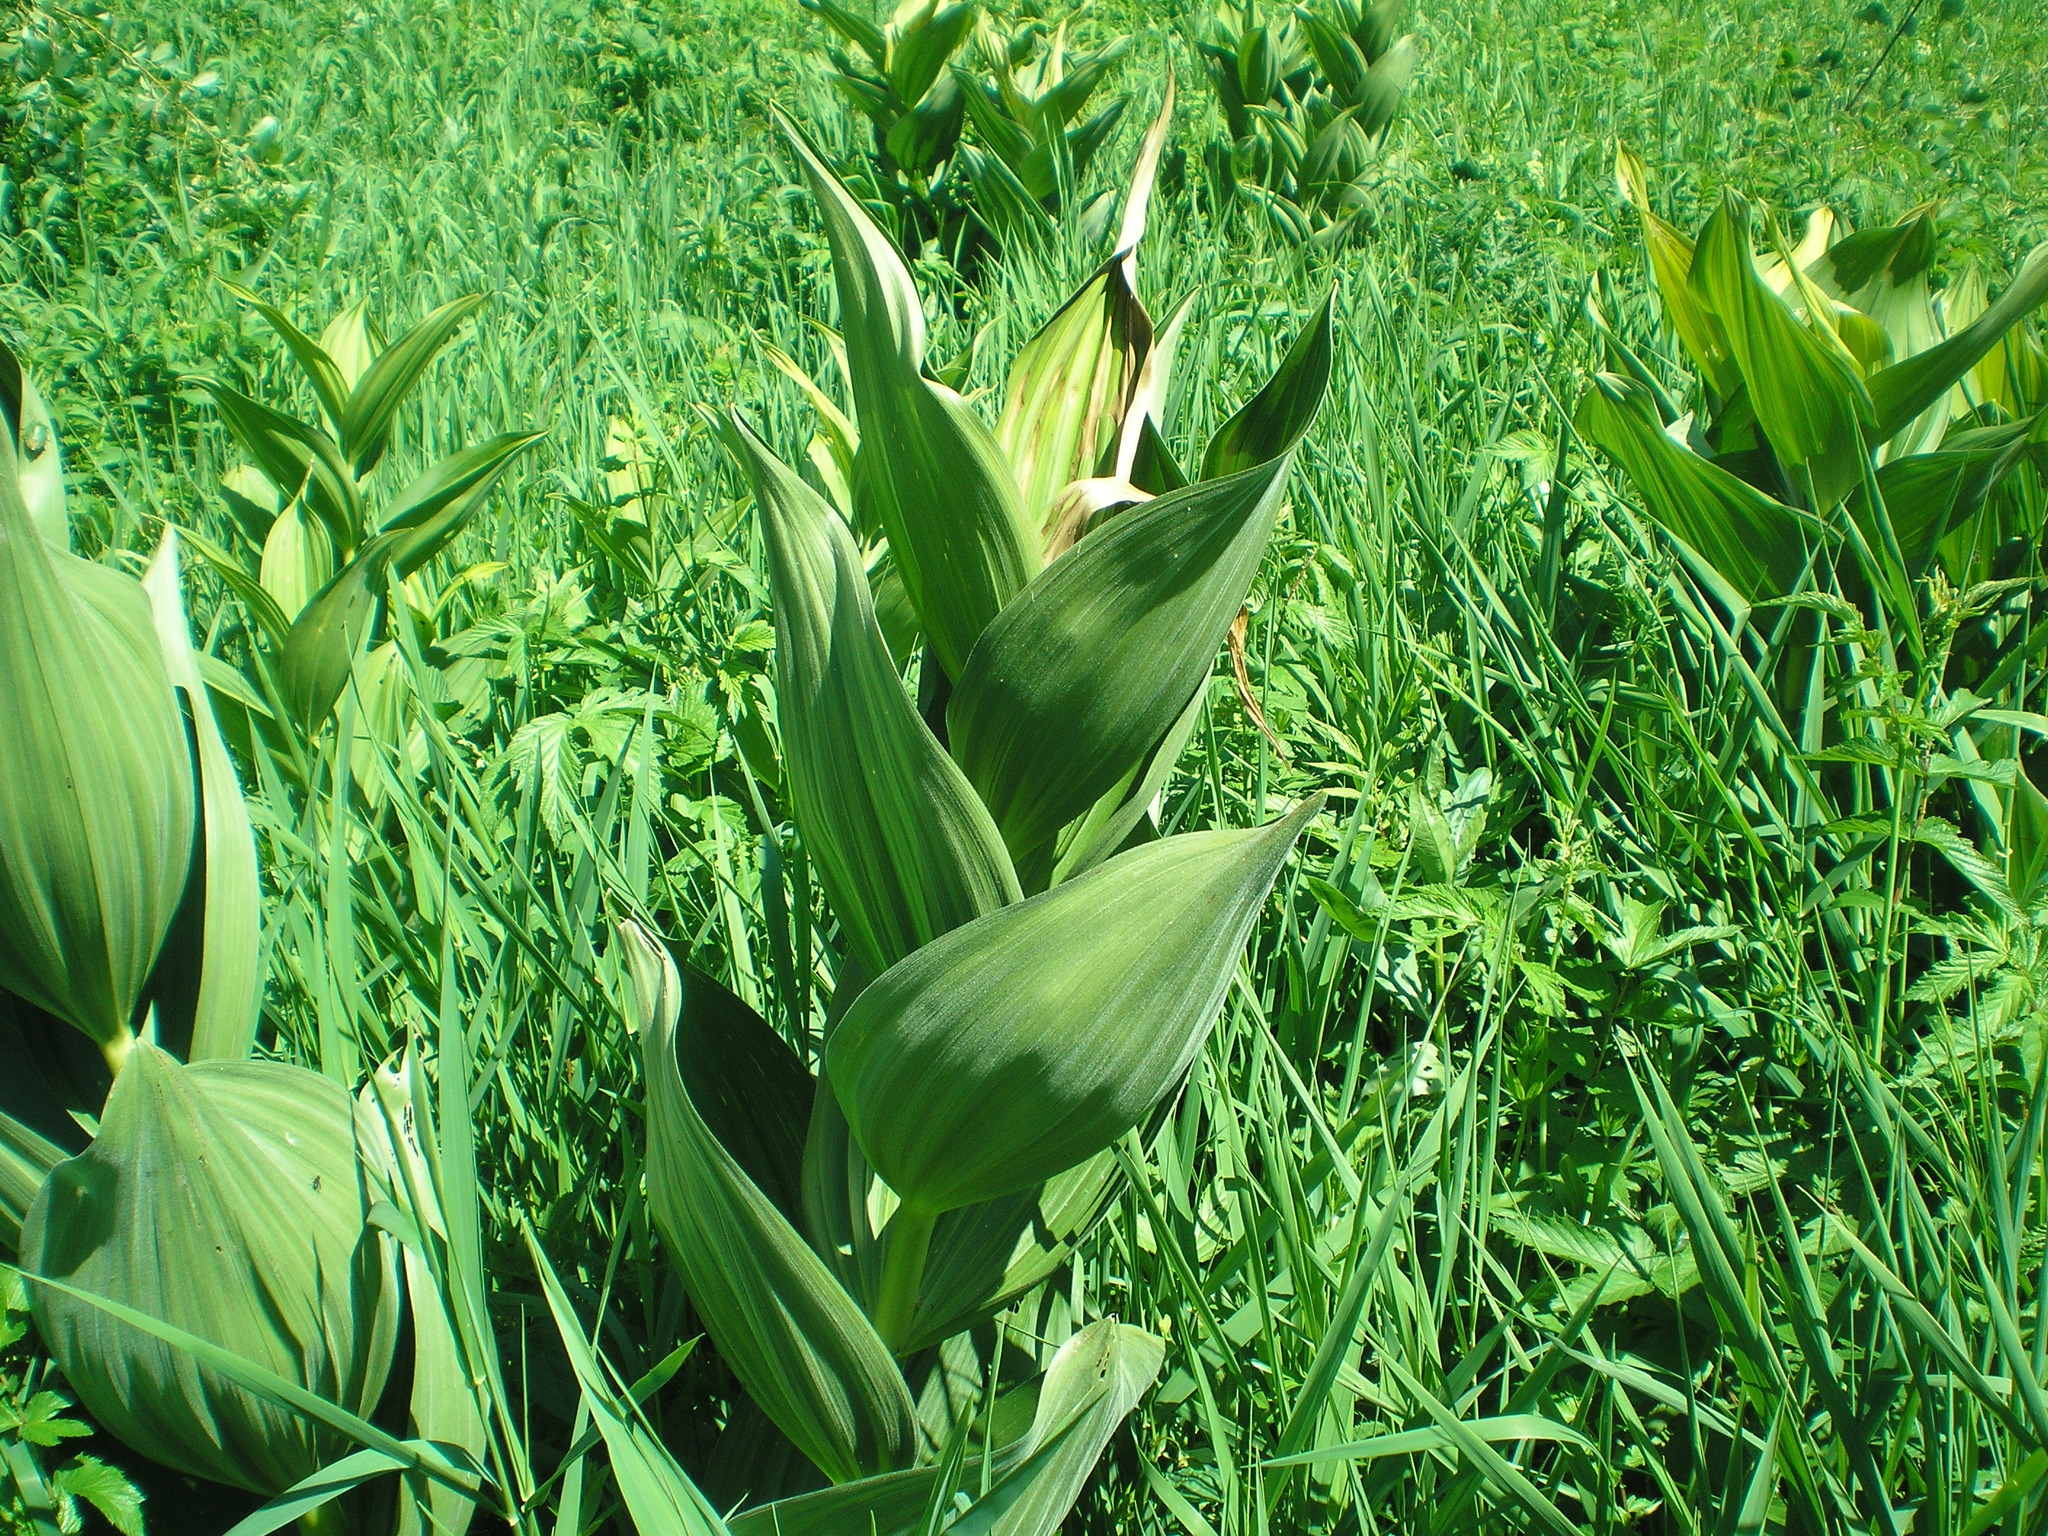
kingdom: Plantae
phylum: Tracheophyta
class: Liliopsida
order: Liliales
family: Melanthiaceae
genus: Veratrum
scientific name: Veratrum lobelianum
